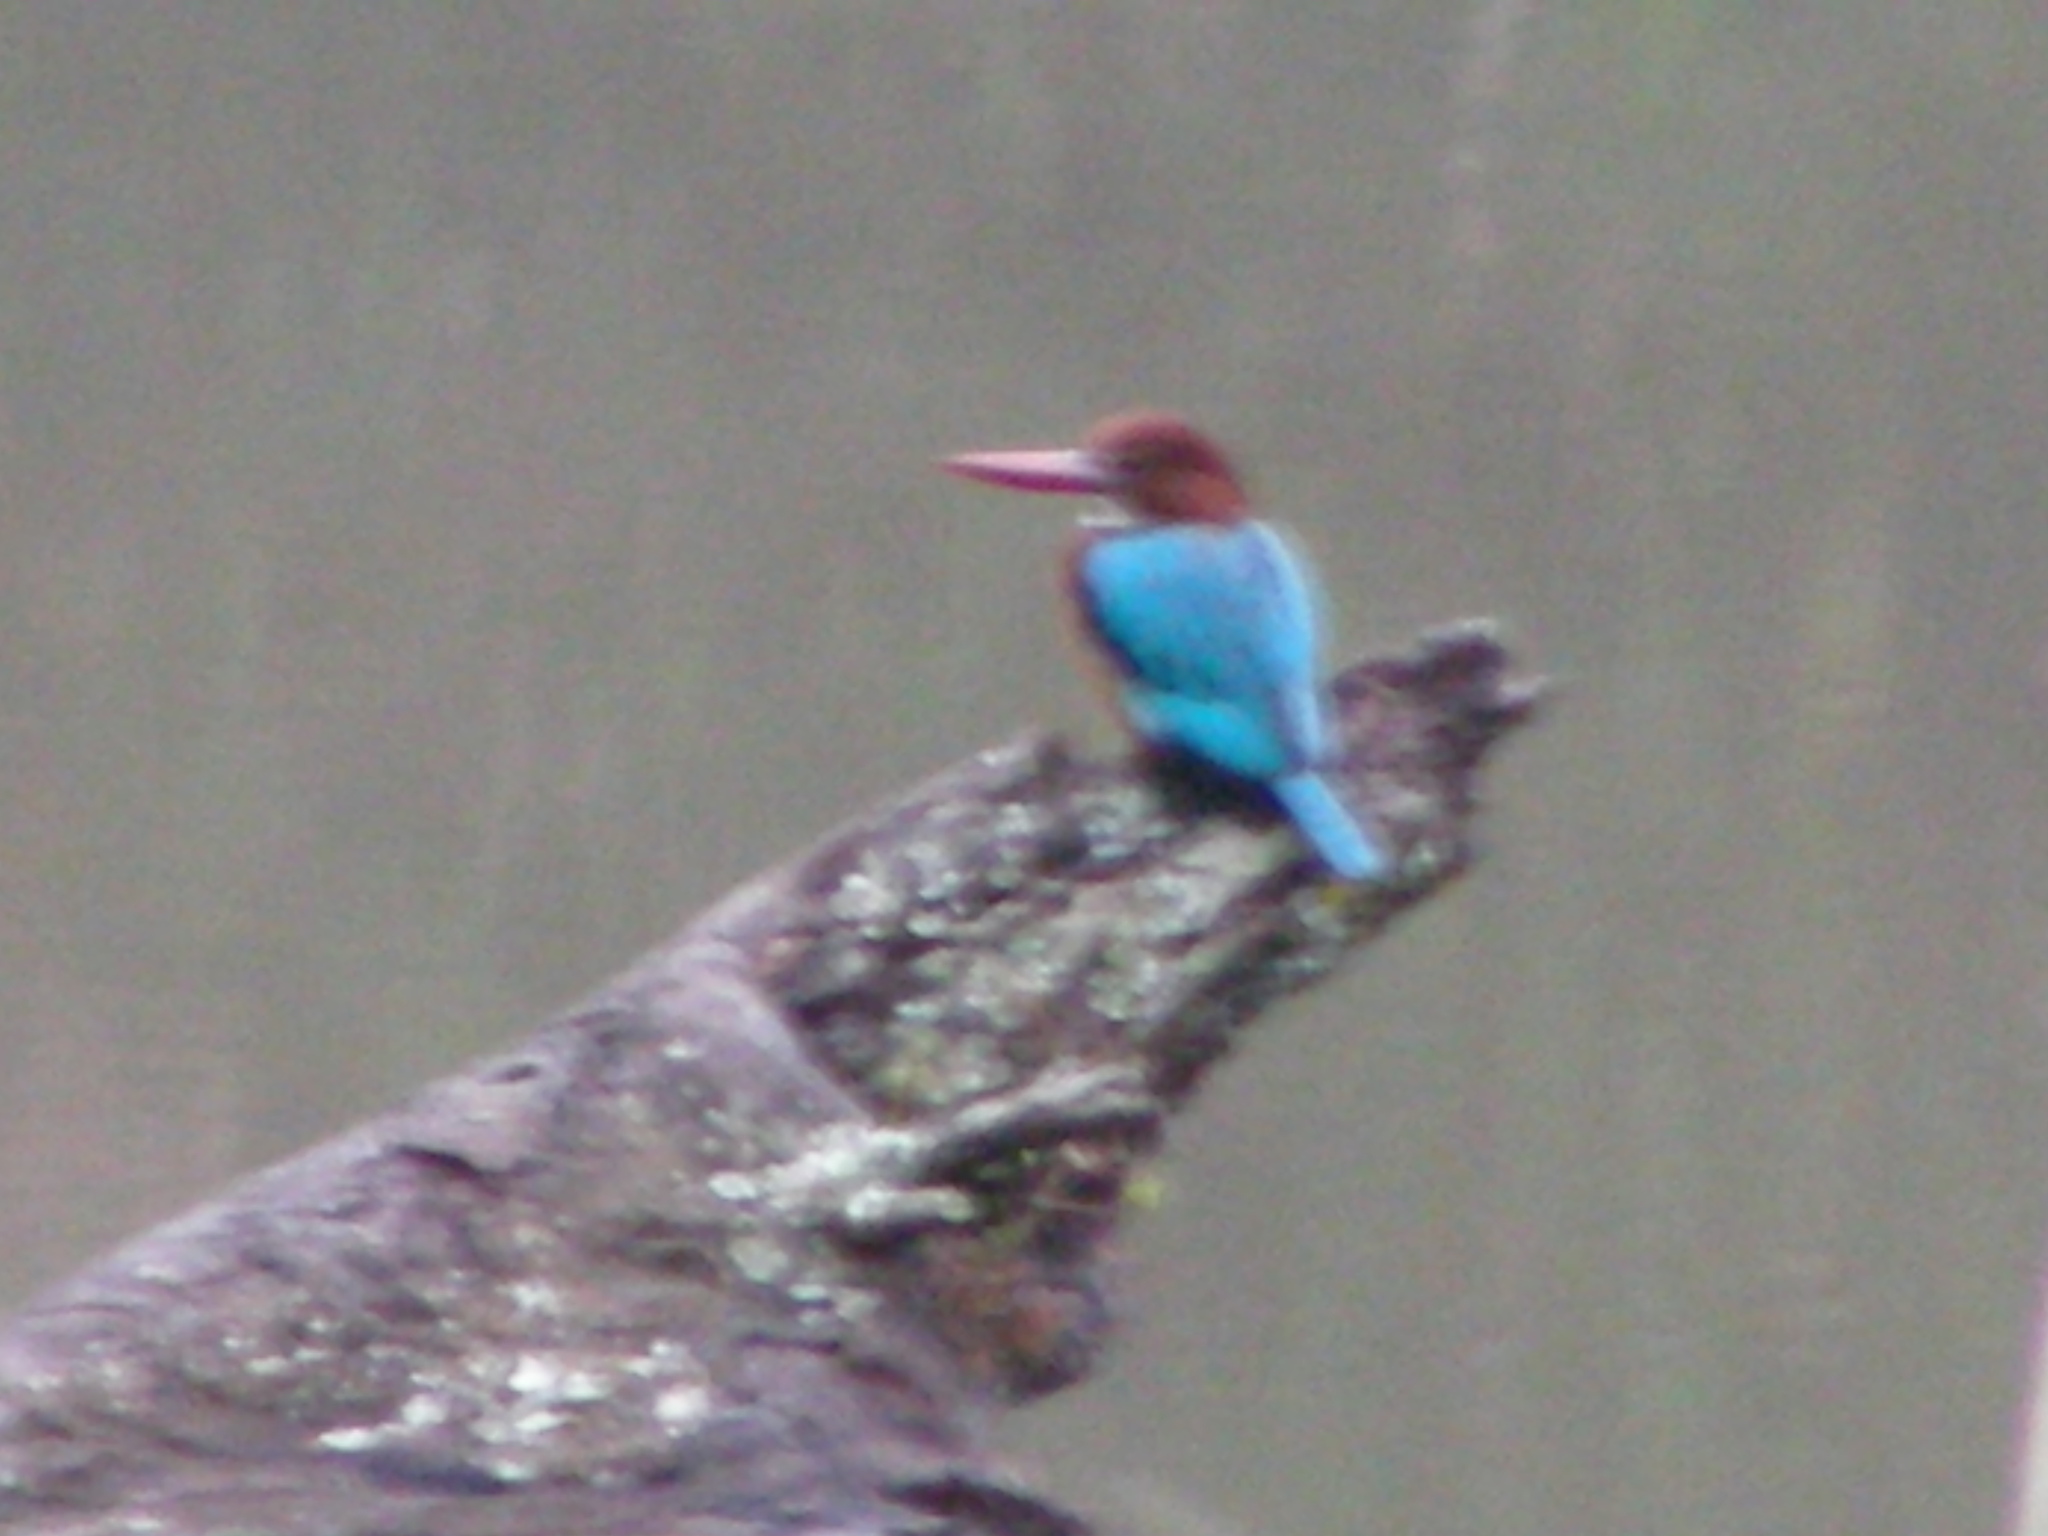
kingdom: Animalia
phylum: Chordata
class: Aves
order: Coraciiformes
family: Alcedinidae
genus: Halcyon
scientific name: Halcyon smyrnensis
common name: White-throated kingfisher
